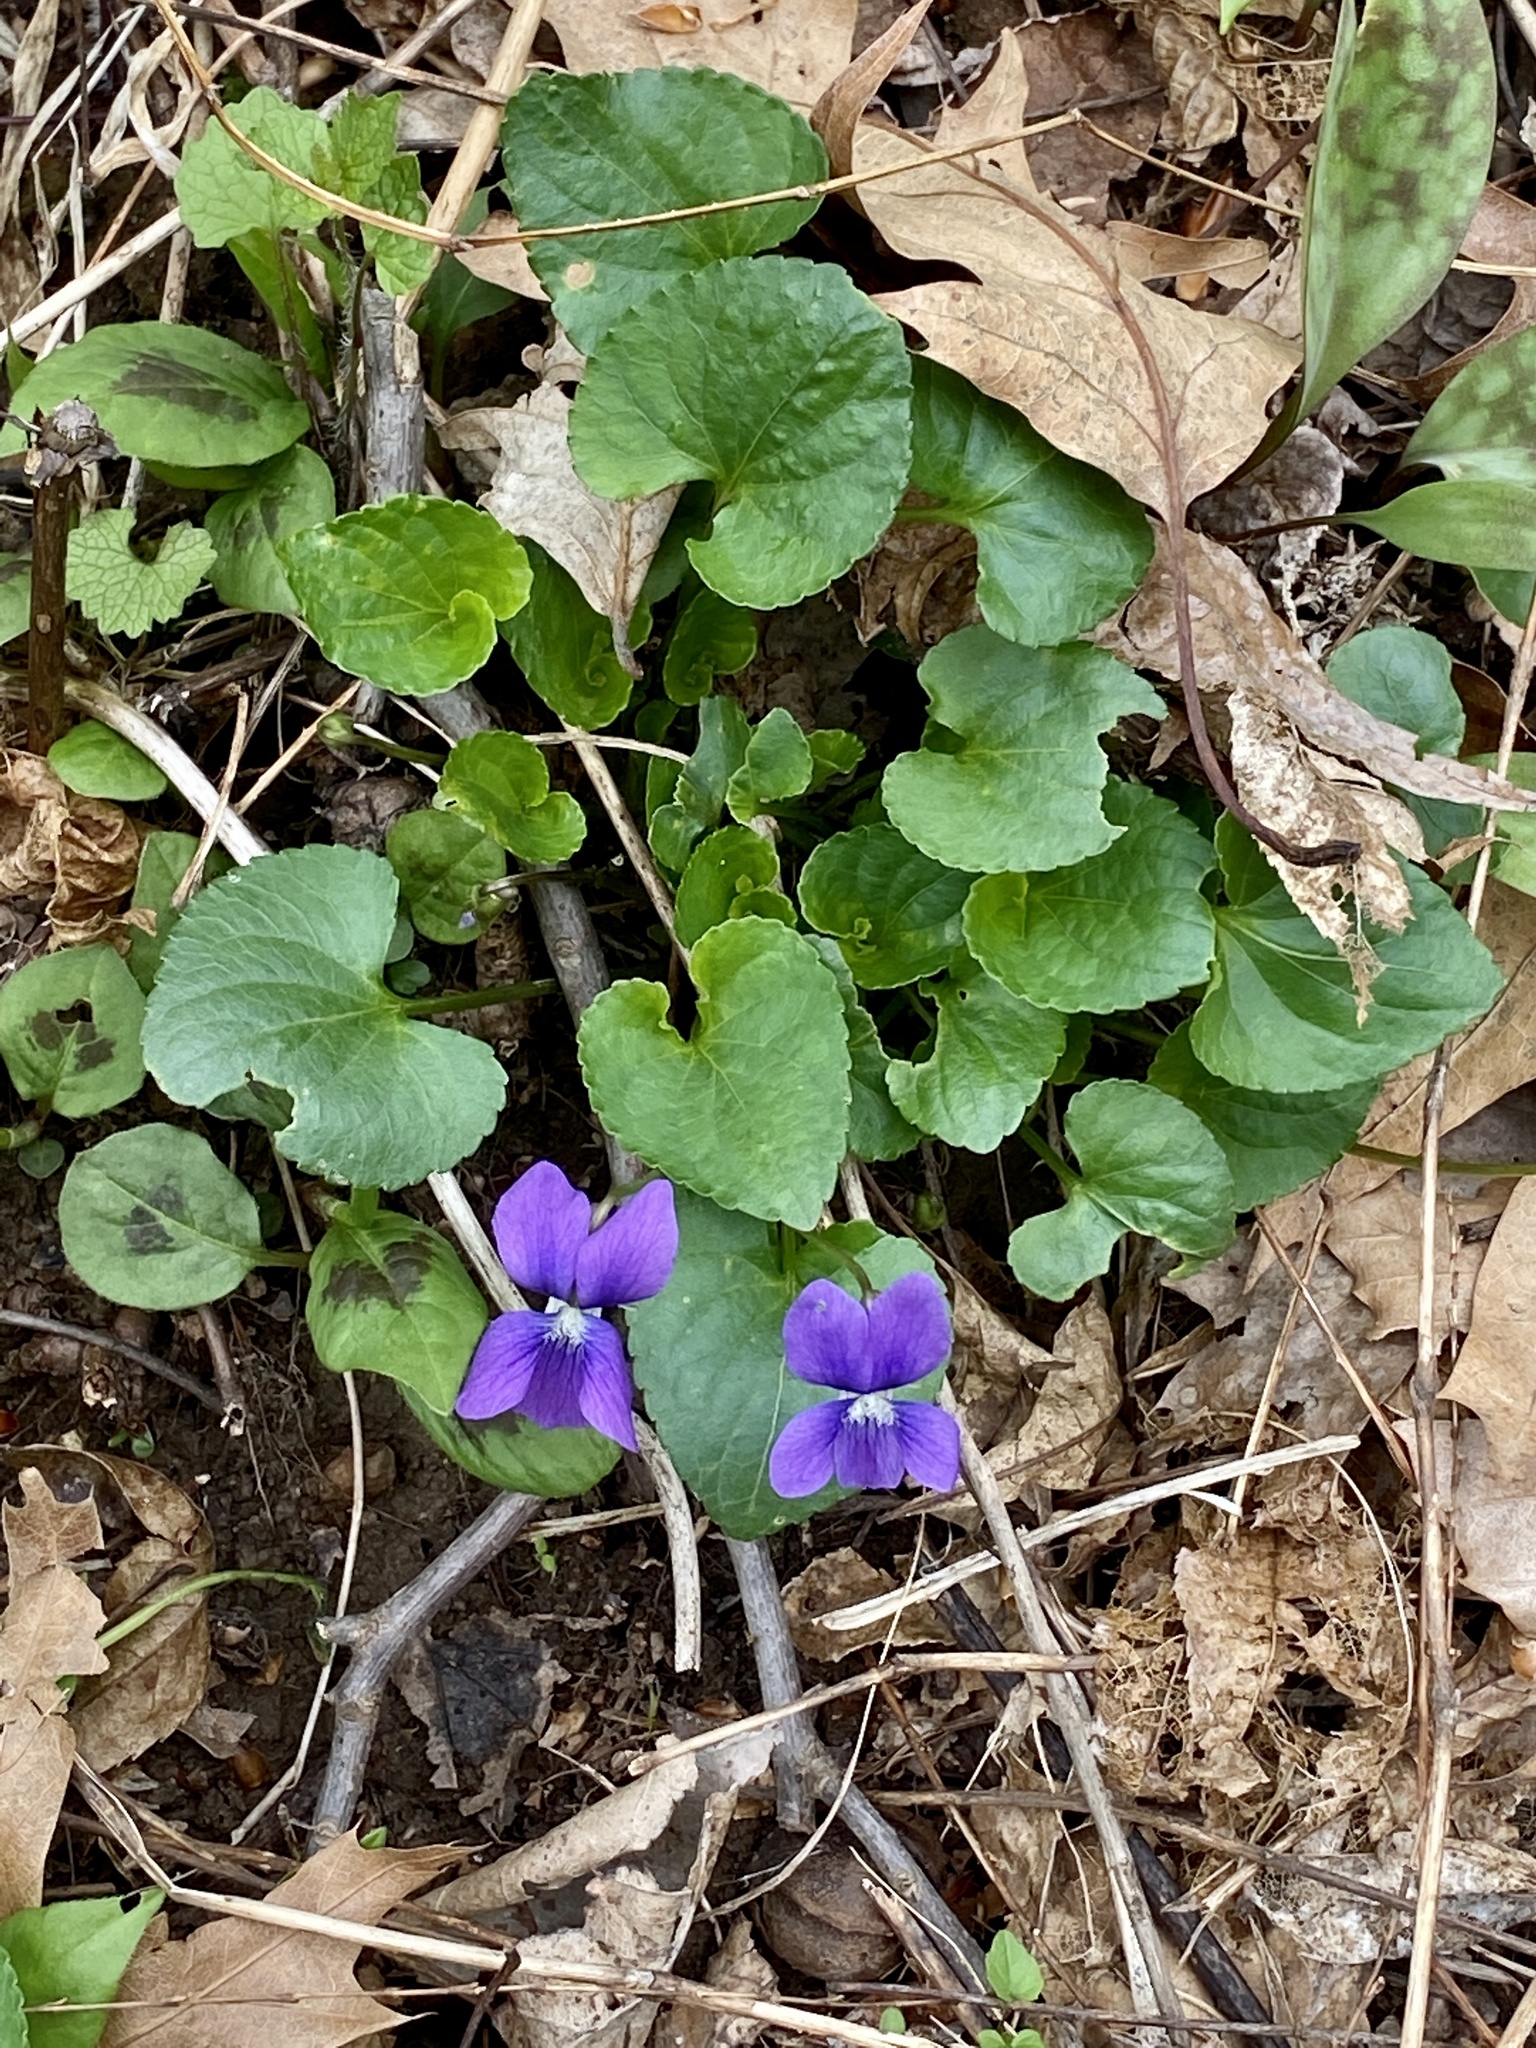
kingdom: Plantae
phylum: Tracheophyta
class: Magnoliopsida
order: Malpighiales
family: Violaceae
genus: Viola
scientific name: Viola sororia
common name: Dooryard violet
